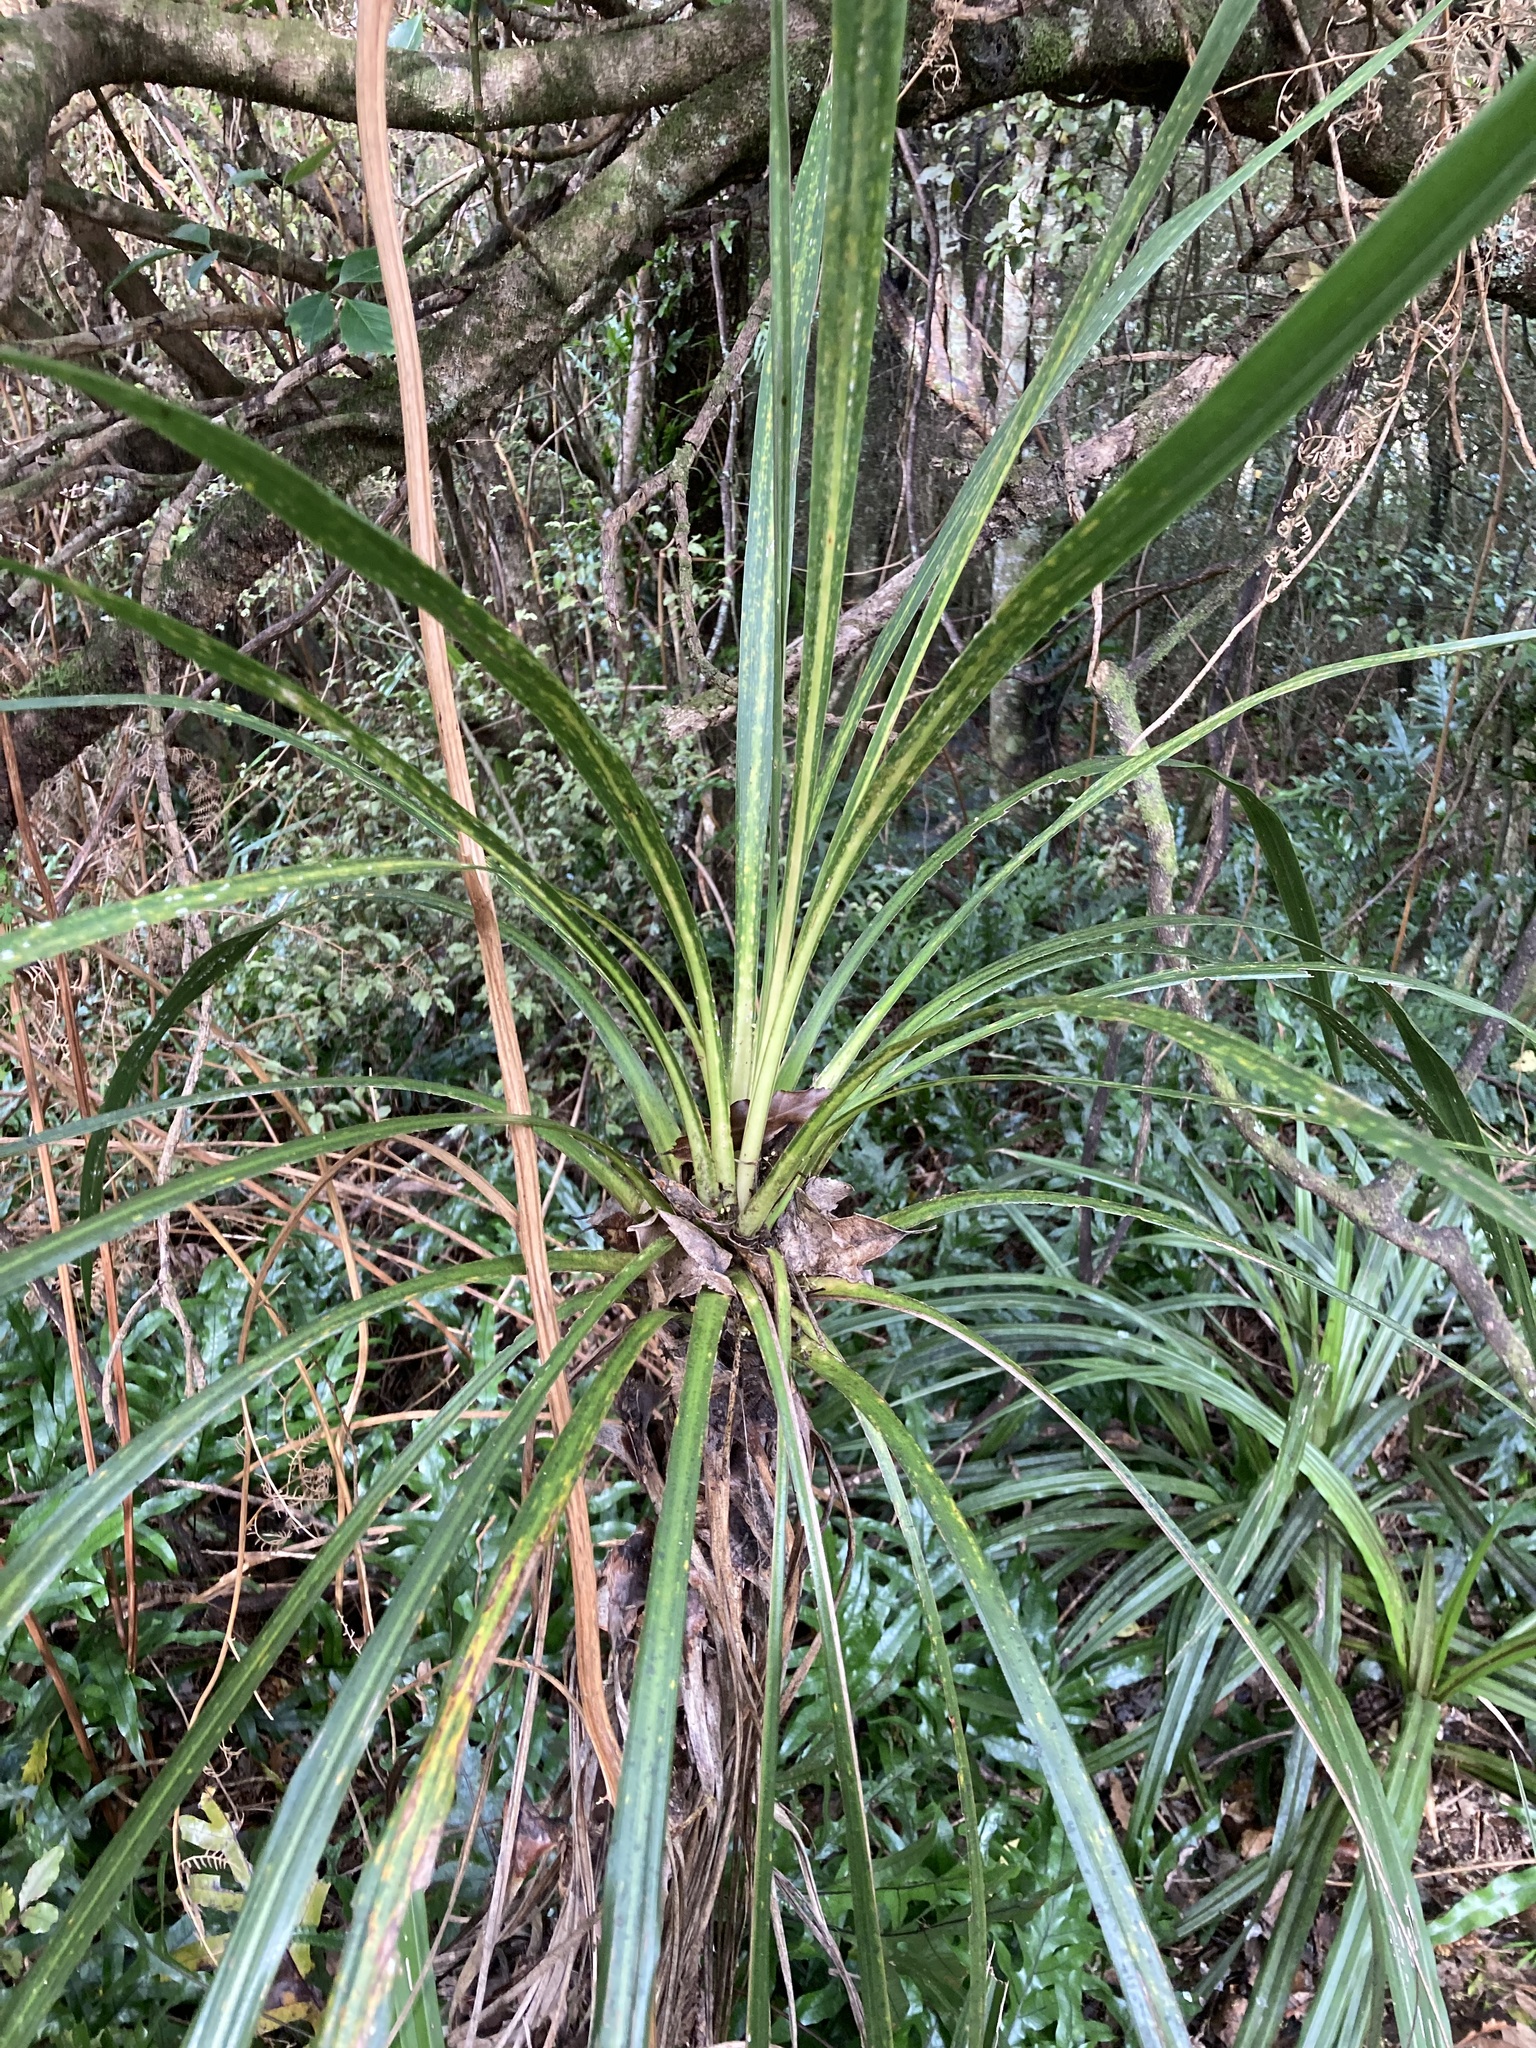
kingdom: Plantae
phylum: Tracheophyta
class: Liliopsida
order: Pandanales
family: Pandanaceae
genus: Freycinetia
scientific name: Freycinetia banksii
